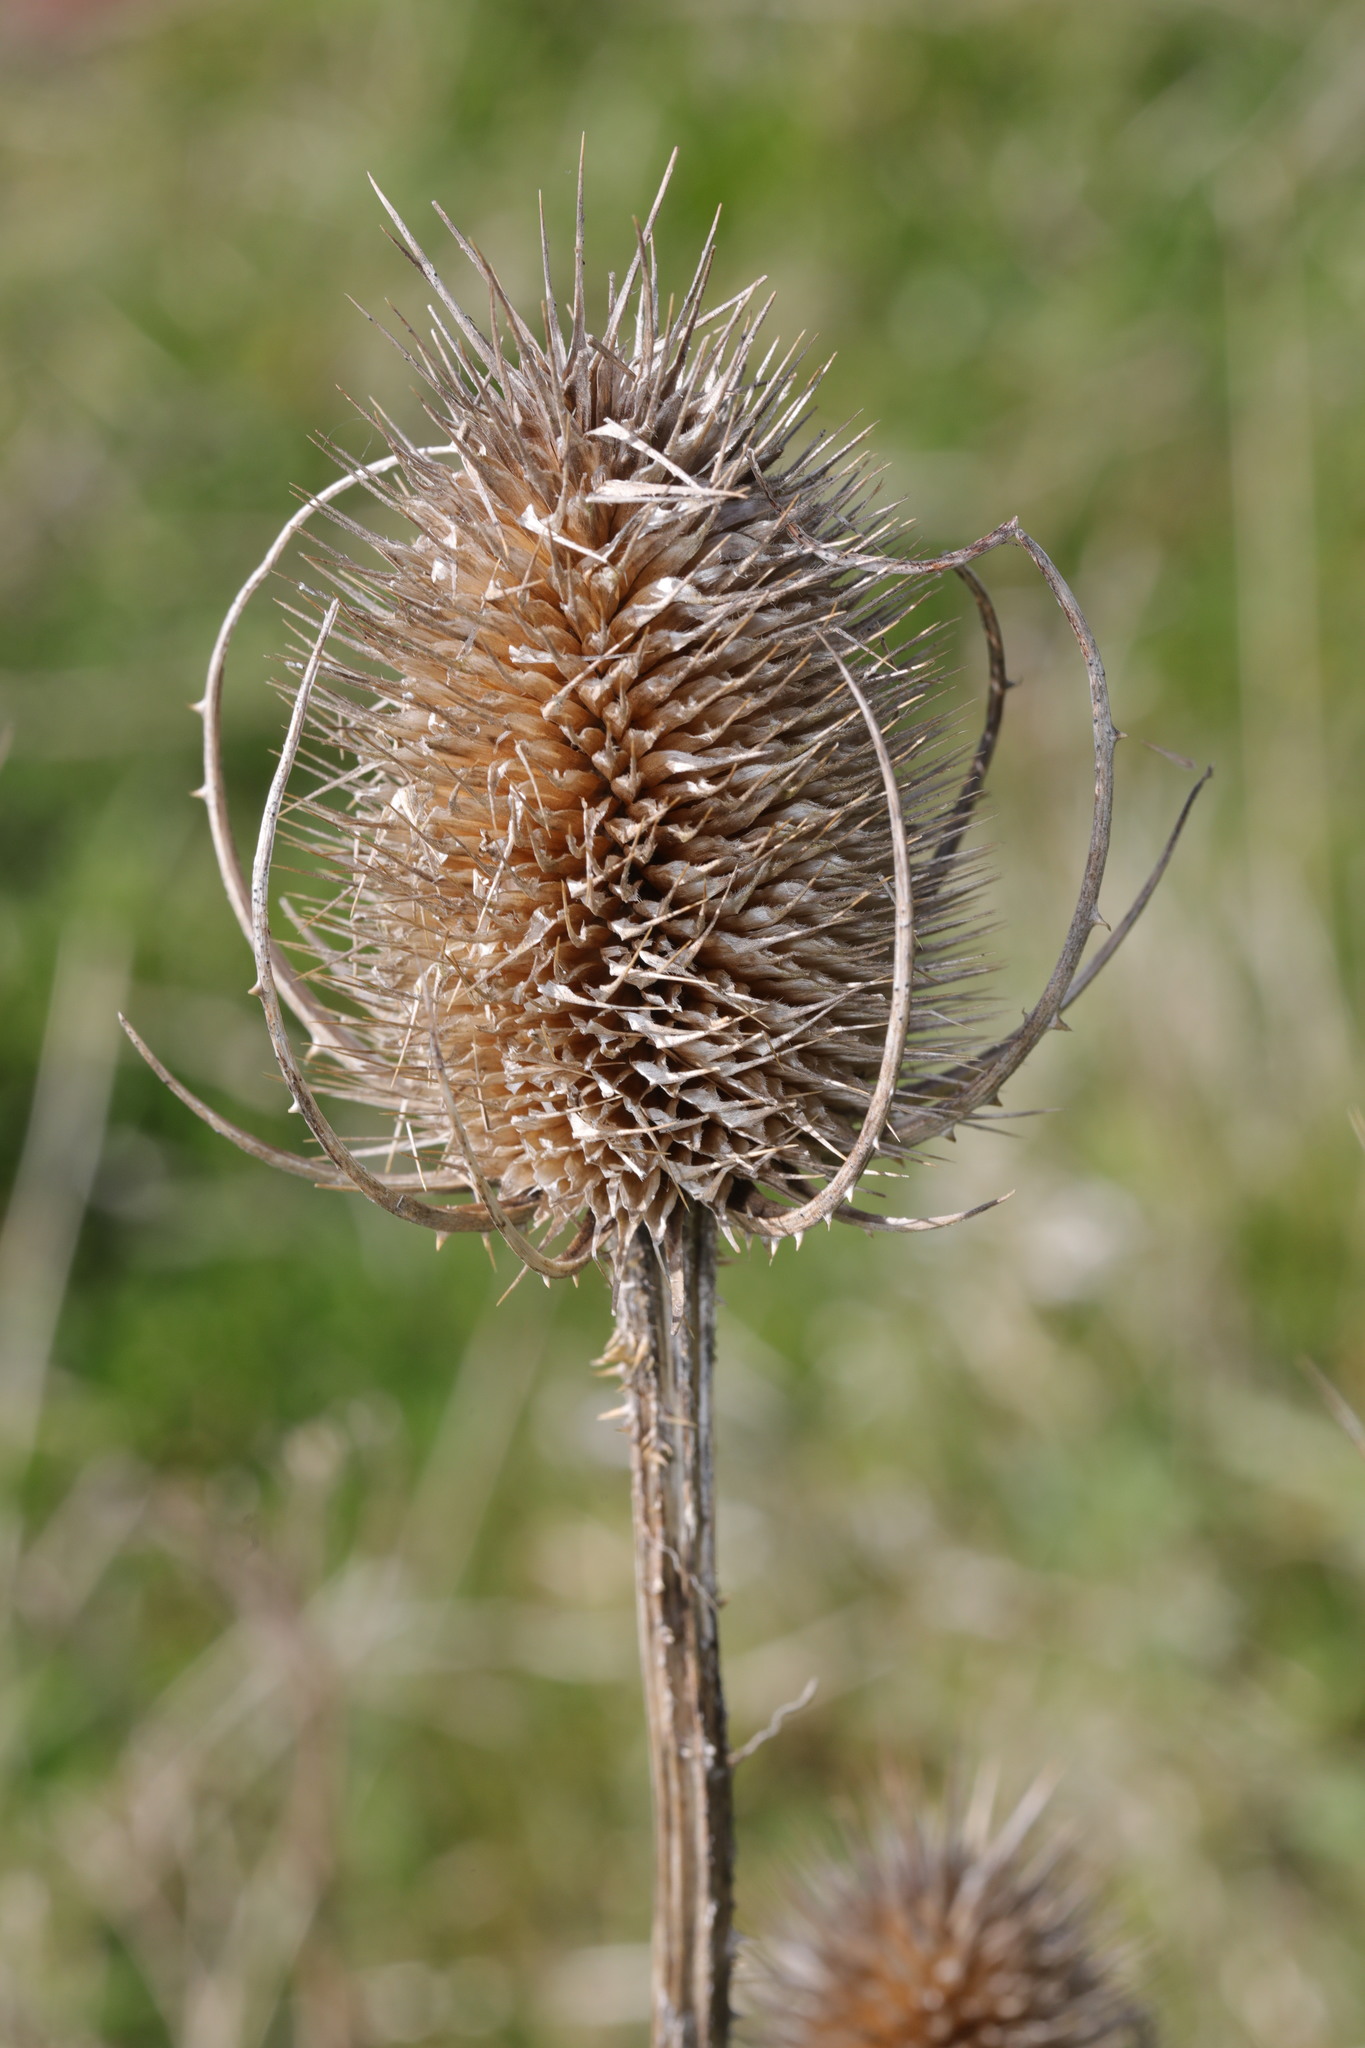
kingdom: Plantae
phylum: Tracheophyta
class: Magnoliopsida
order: Dipsacales
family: Caprifoliaceae
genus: Dipsacus
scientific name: Dipsacus fullonum
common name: Teasel
